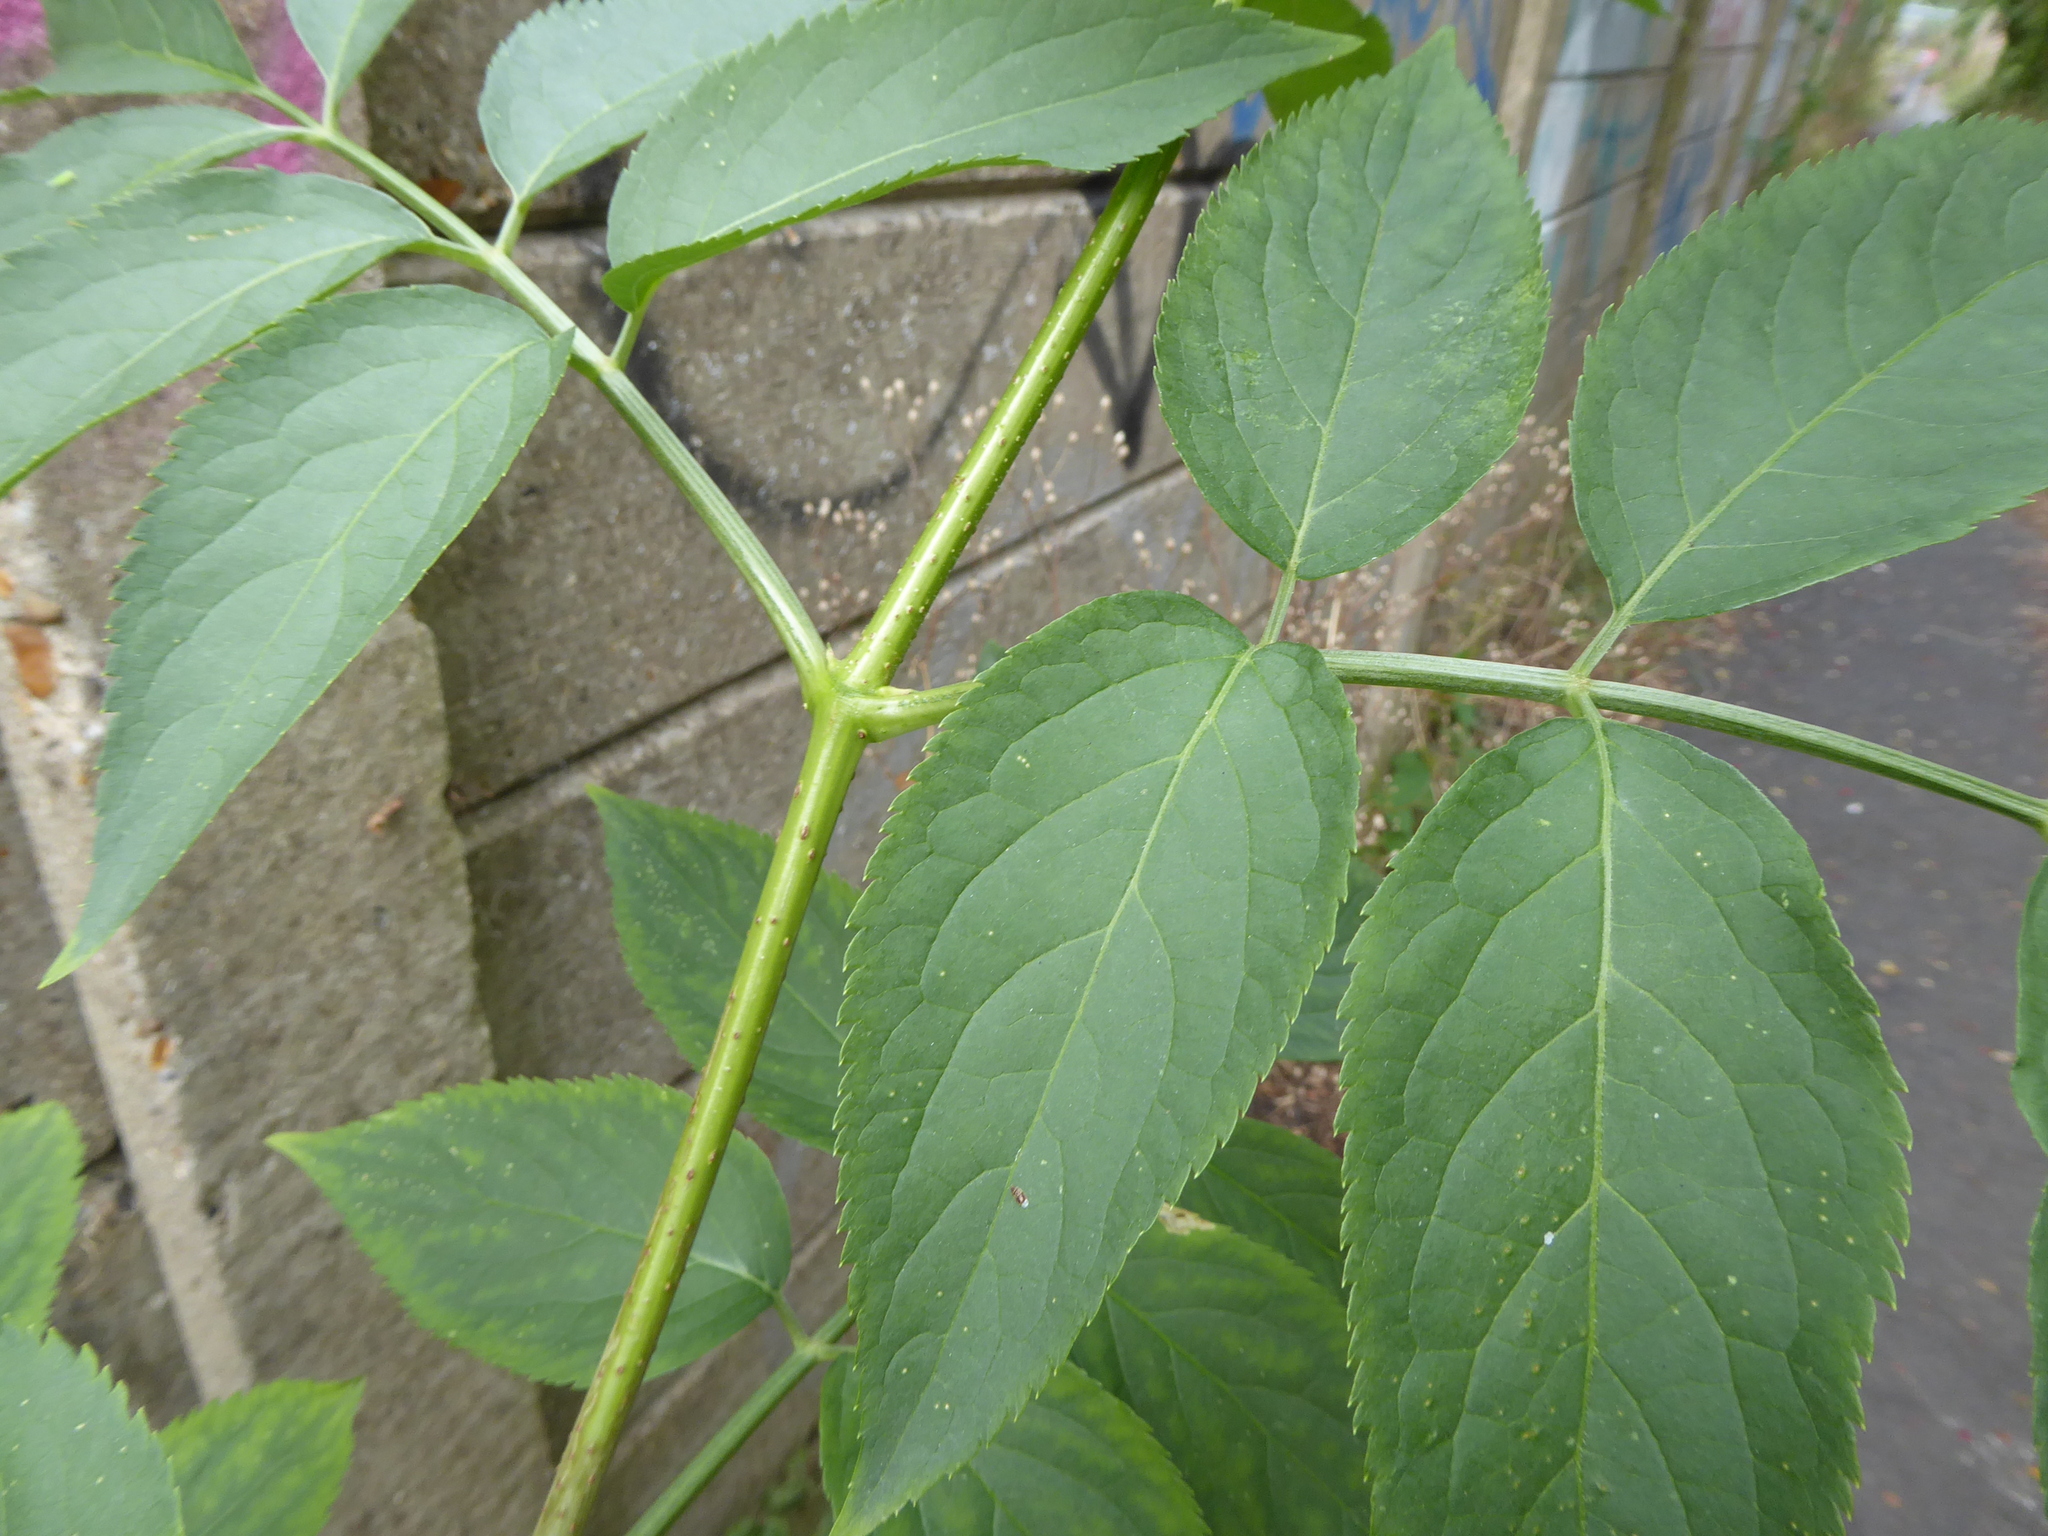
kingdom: Plantae
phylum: Tracheophyta
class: Magnoliopsida
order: Dipsacales
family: Viburnaceae
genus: Sambucus
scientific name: Sambucus nigra
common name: Elder
